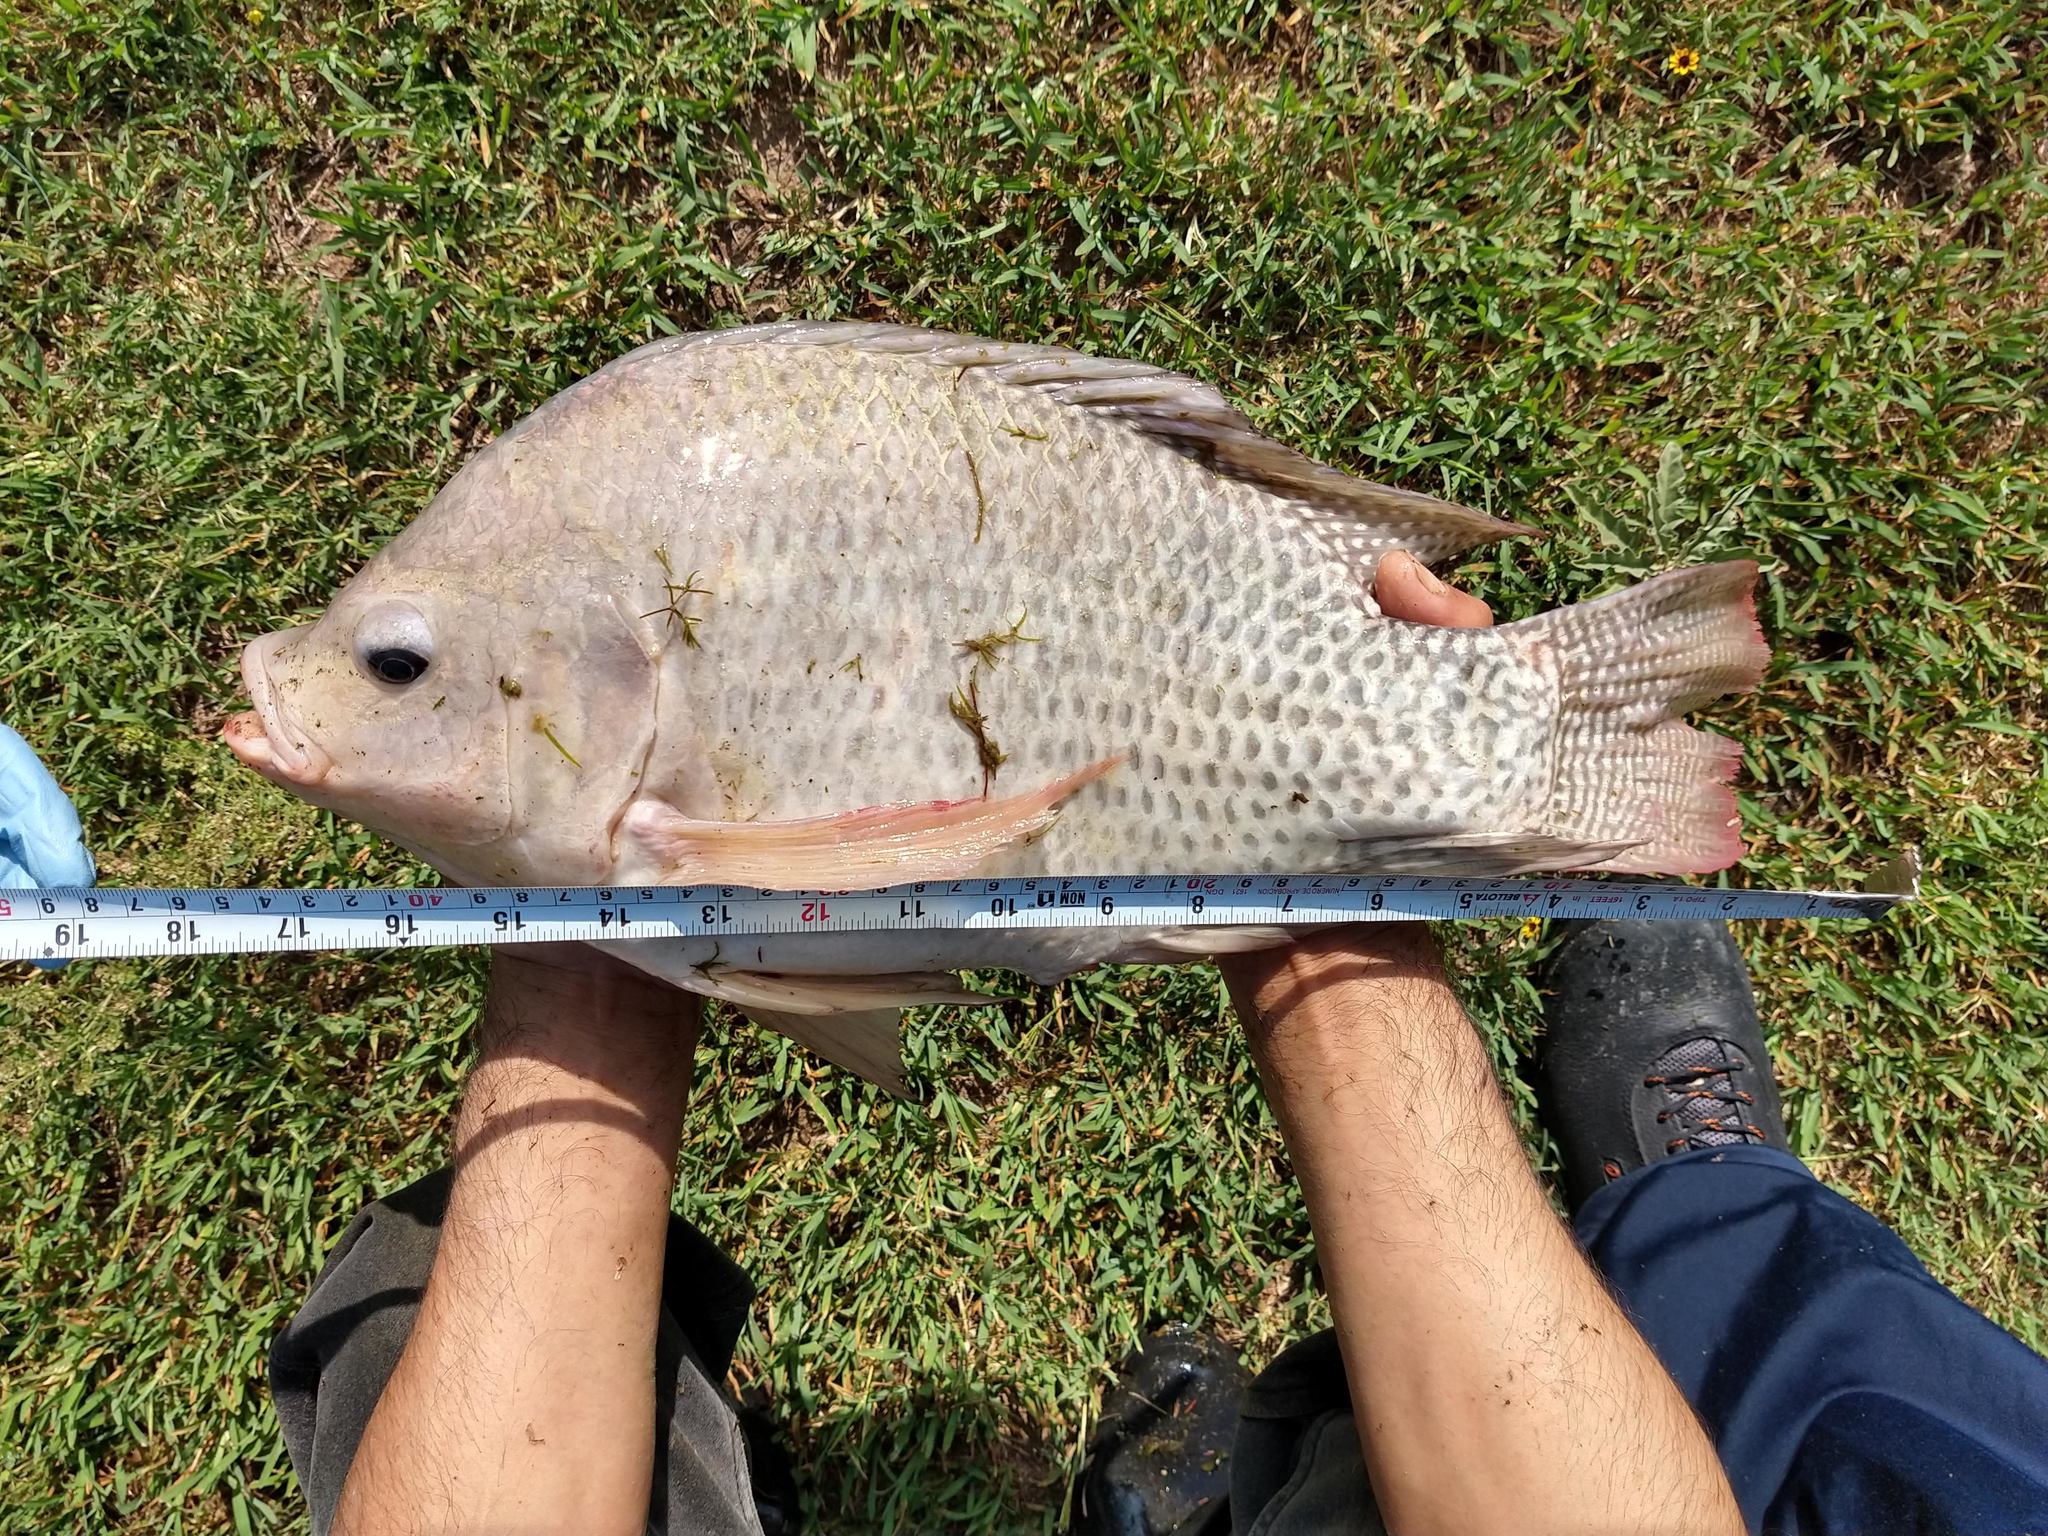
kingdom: Animalia
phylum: Chordata
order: Perciformes
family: Cichlidae
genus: Oreochromis
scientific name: Oreochromis niloticus
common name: Nile tilapia
